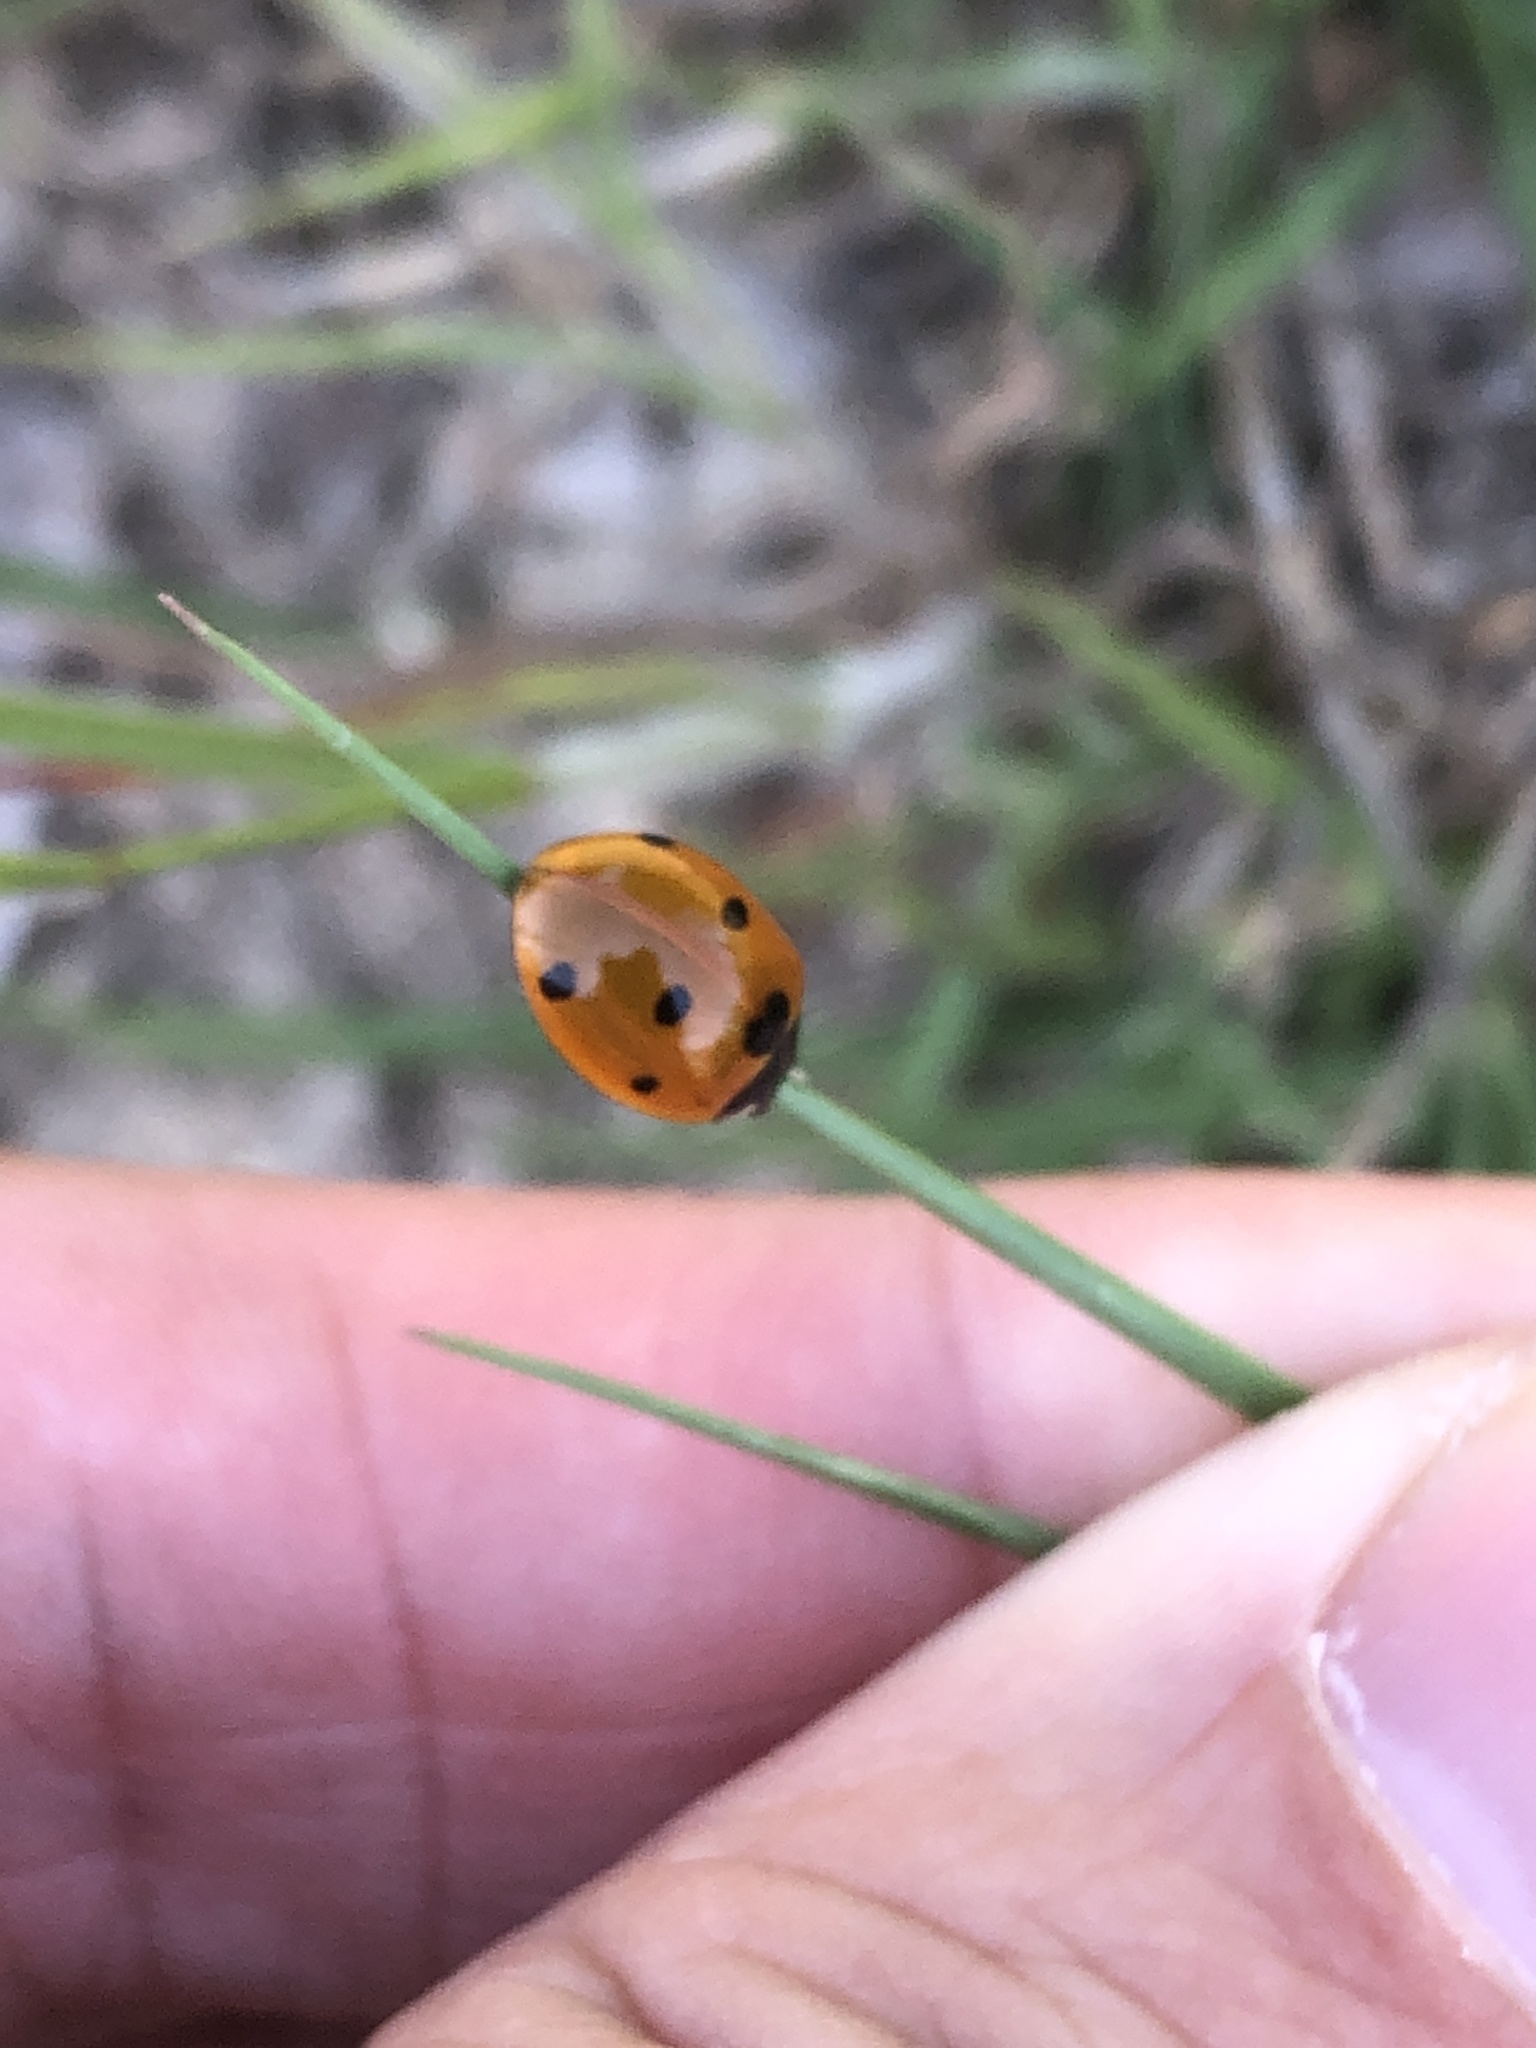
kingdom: Animalia
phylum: Arthropoda
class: Insecta
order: Coleoptera
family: Coccinellidae
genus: Coccinella
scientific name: Coccinella septempunctata
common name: Sevenspotted lady beetle
